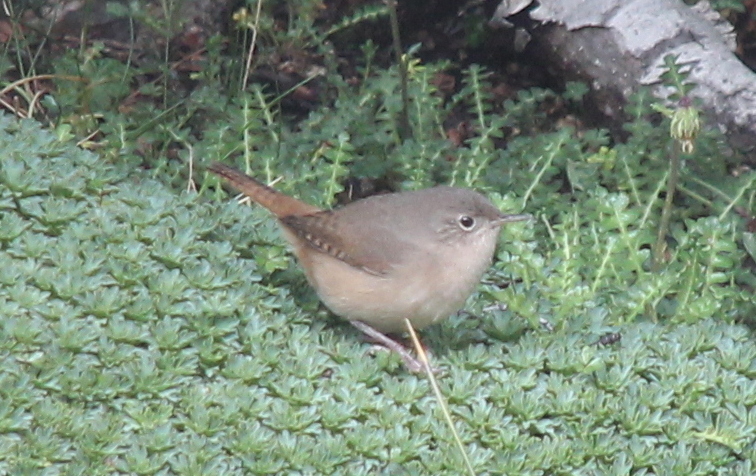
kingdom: Animalia
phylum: Chordata
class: Aves
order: Passeriformes
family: Troglodytidae
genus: Troglodytes
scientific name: Troglodytes aedon
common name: House wren
